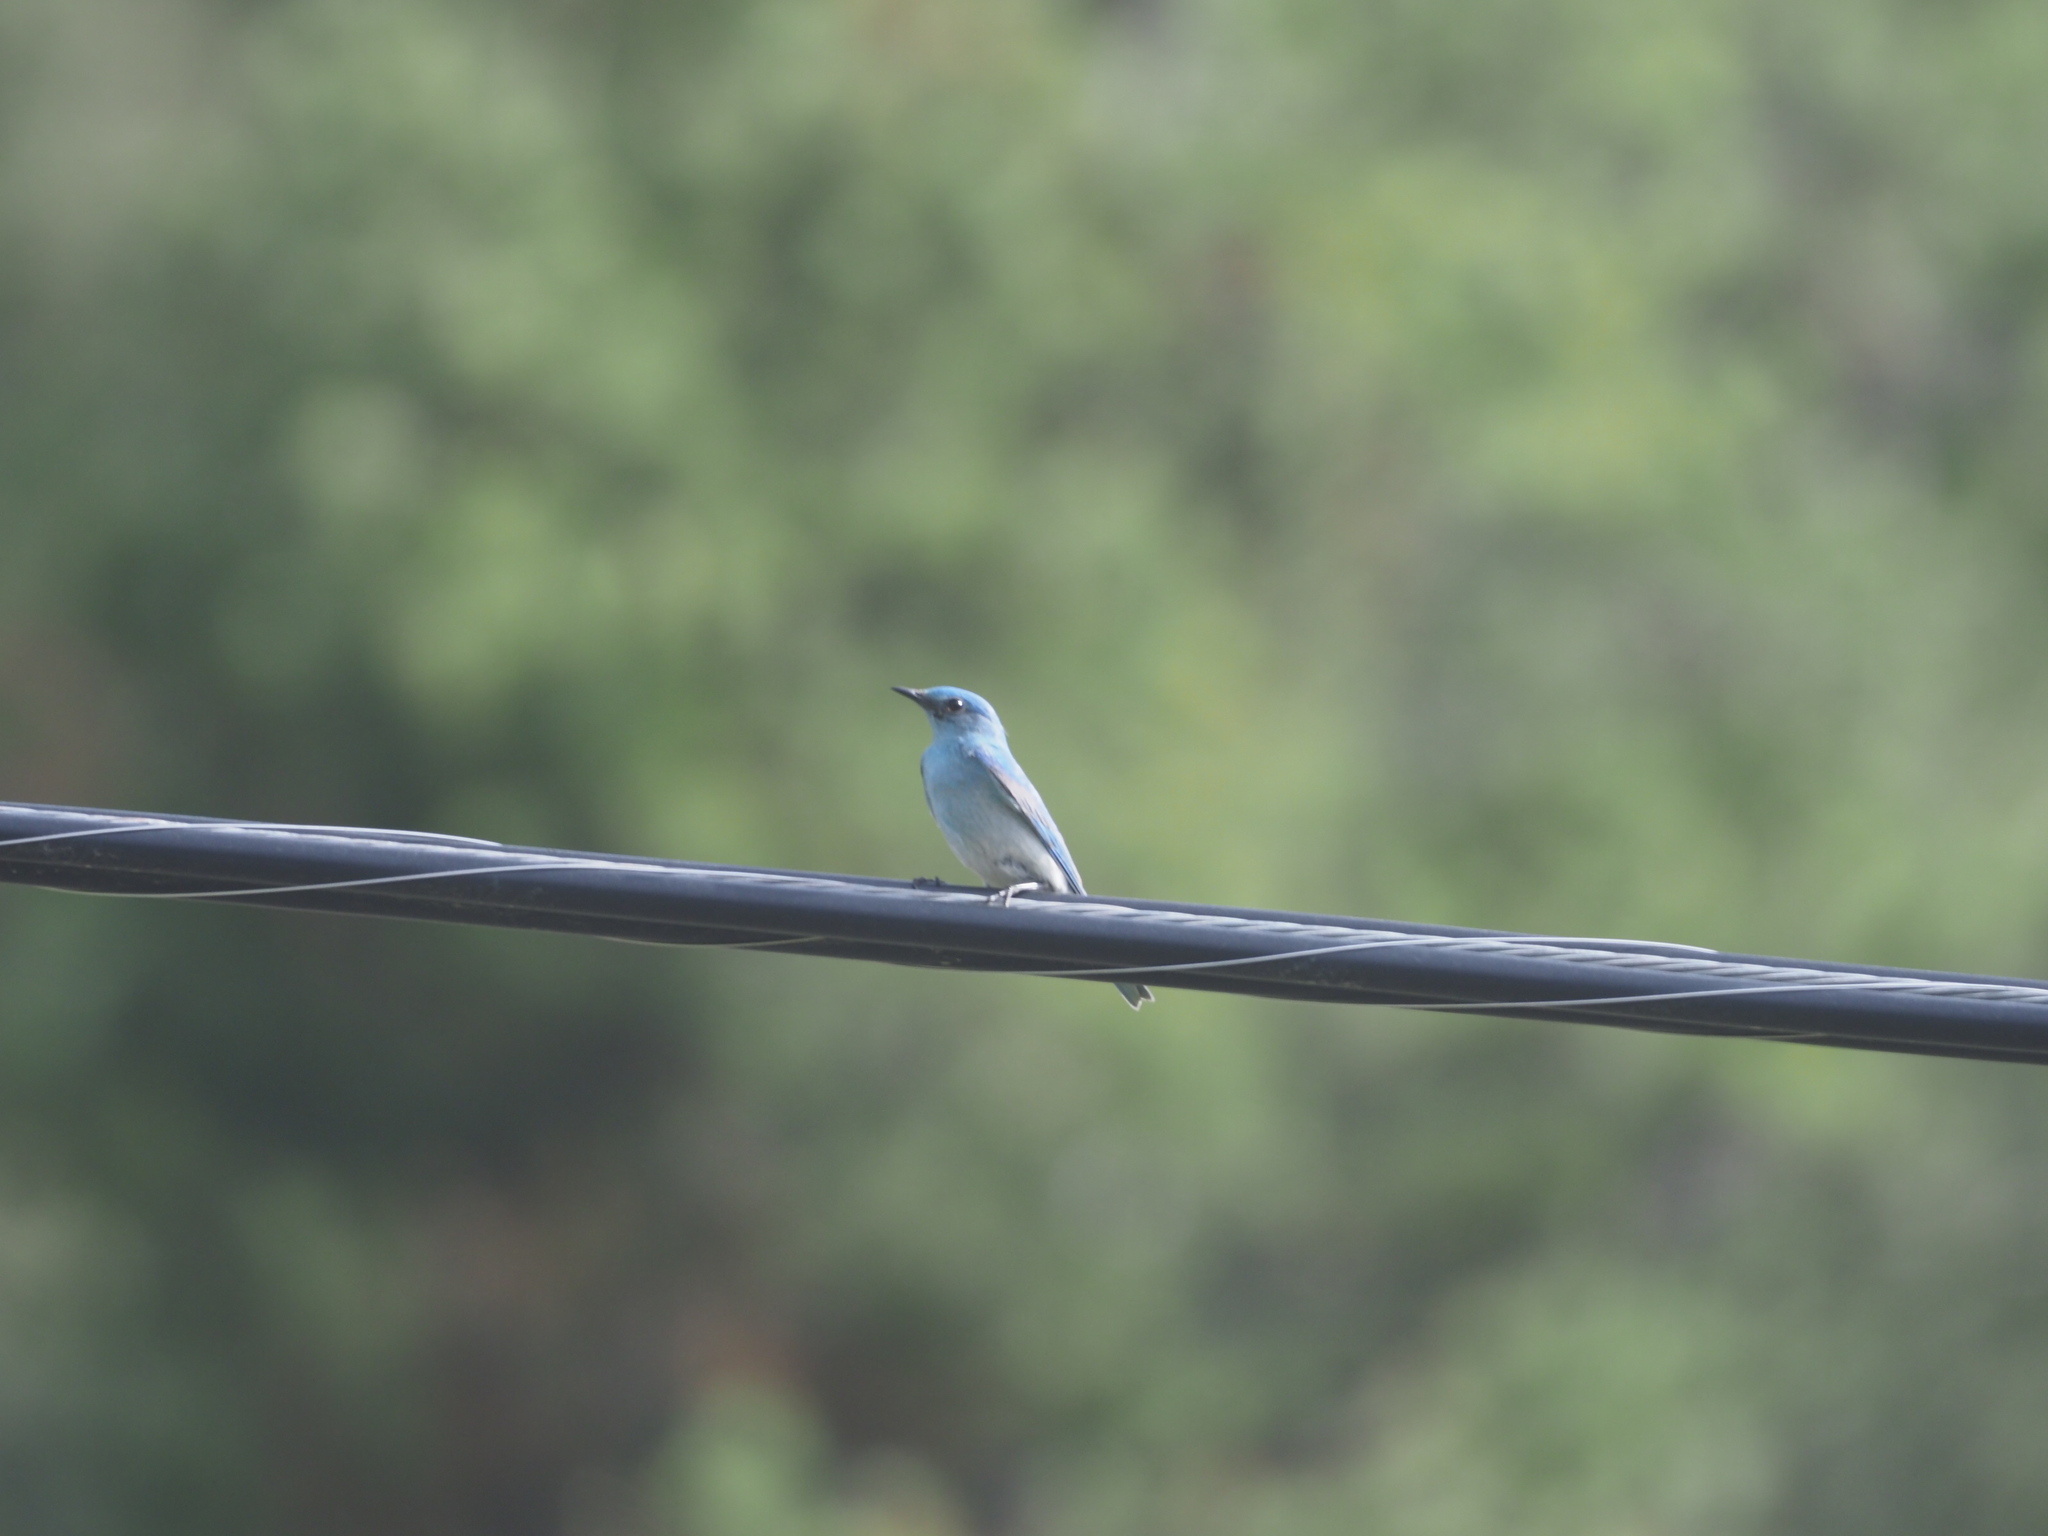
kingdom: Animalia
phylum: Chordata
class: Aves
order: Passeriformes
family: Turdidae
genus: Sialia
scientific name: Sialia currucoides
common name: Mountain bluebird
